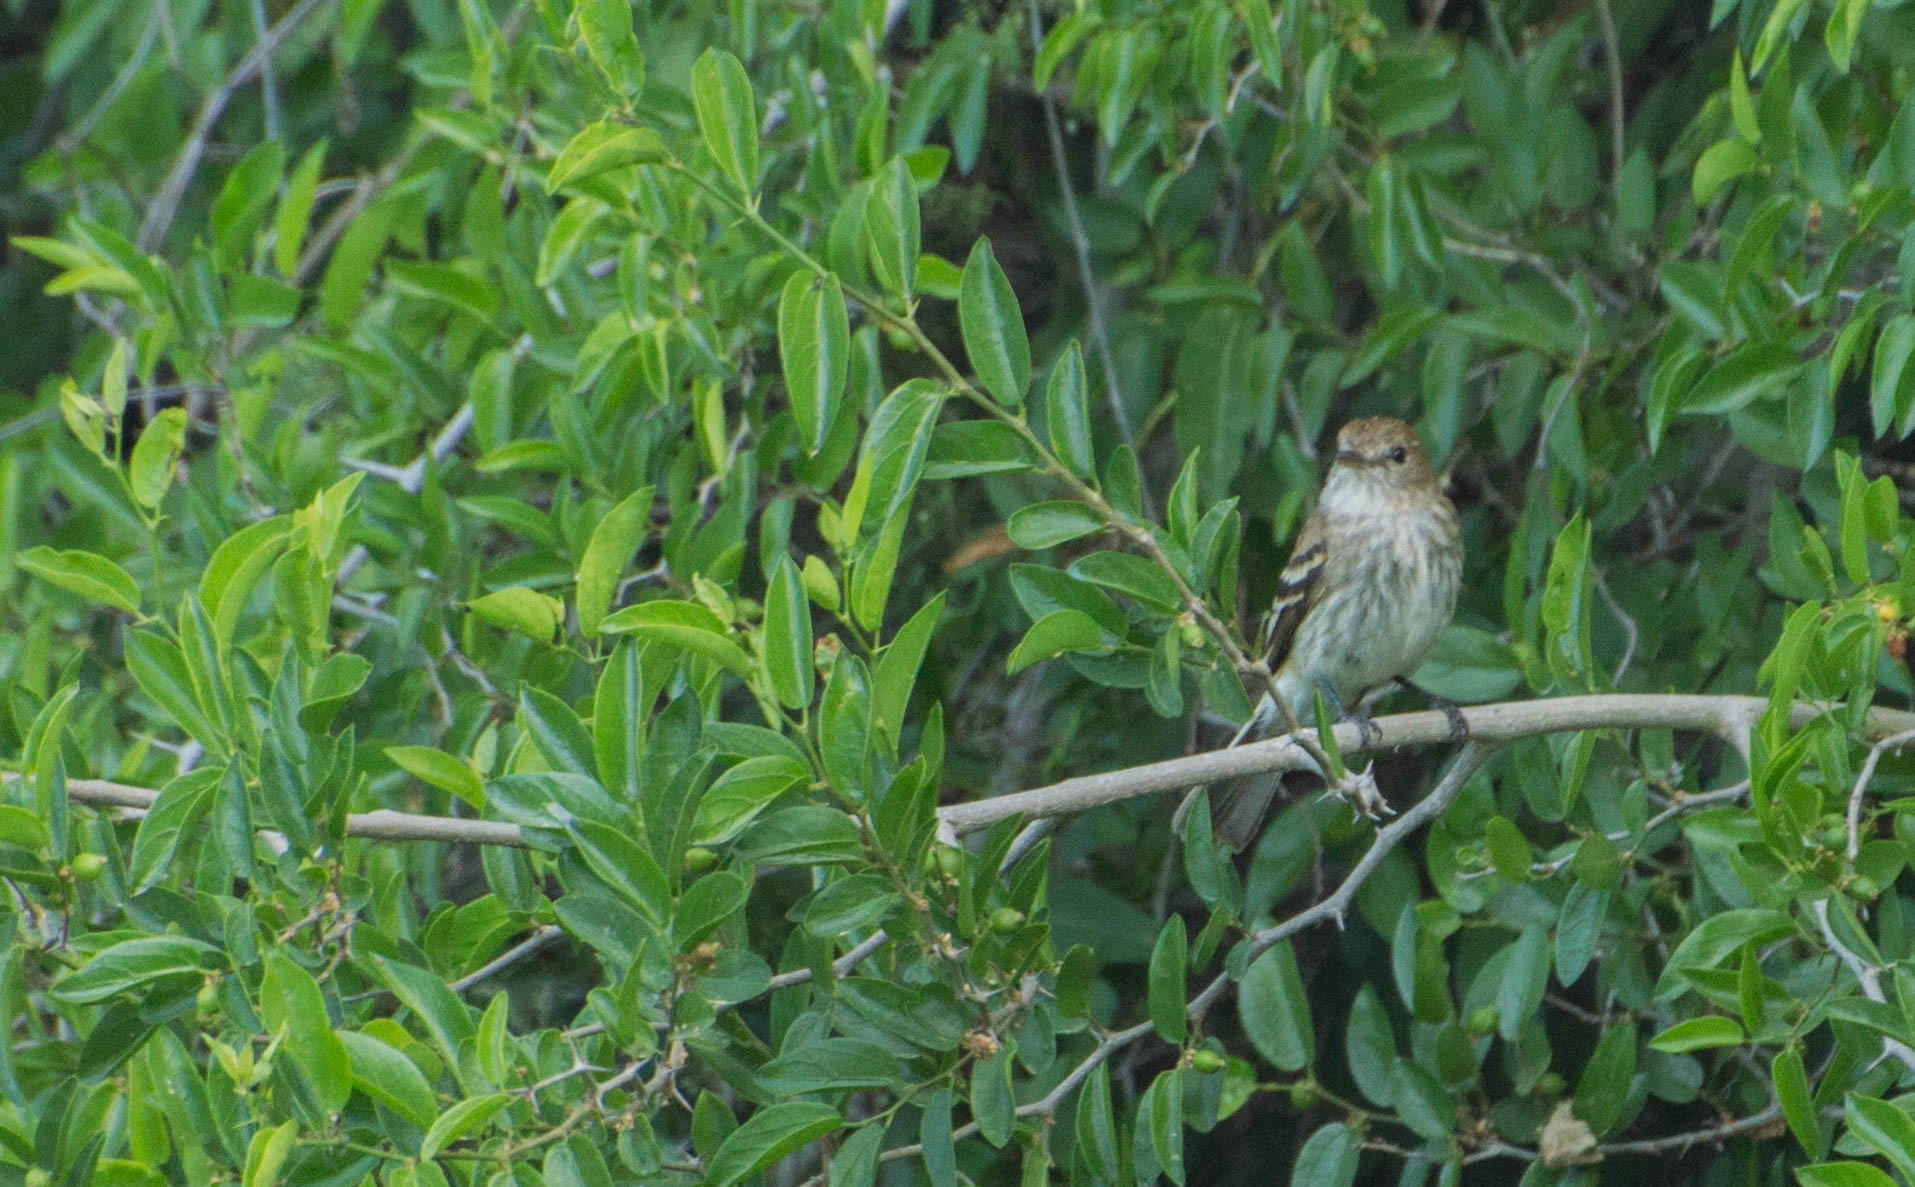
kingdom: Animalia
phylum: Chordata
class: Aves
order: Passeriformes
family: Tyrannidae
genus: Myiophobus
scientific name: Myiophobus fasciatus
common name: Bran-colored flycatcher
